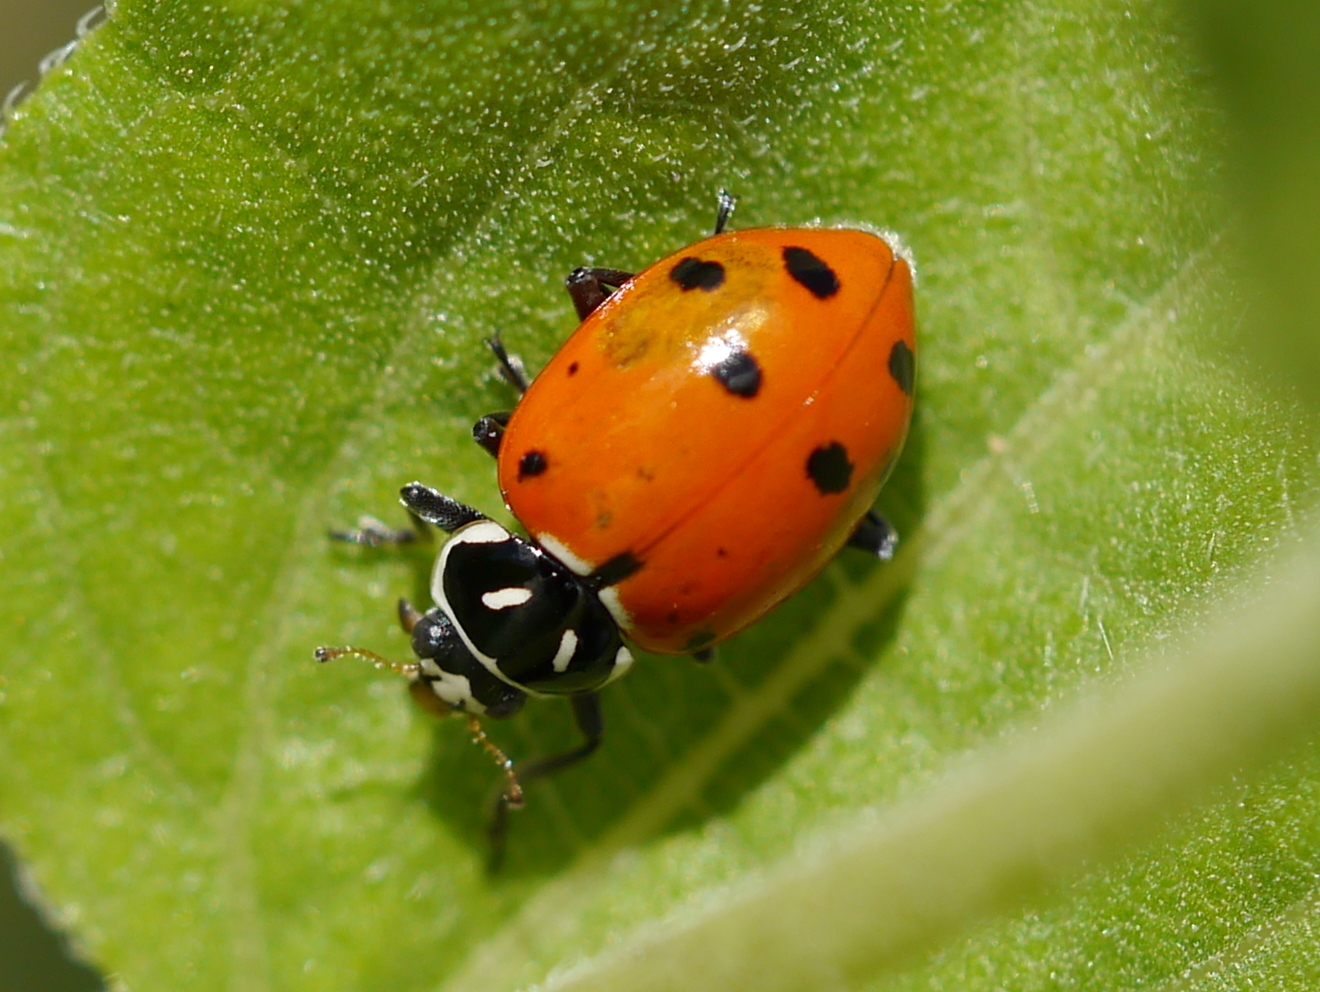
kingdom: Animalia
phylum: Arthropoda
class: Insecta
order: Coleoptera
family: Coccinellidae
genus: Hippodamia
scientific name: Hippodamia convergens
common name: Convergent lady beetle
